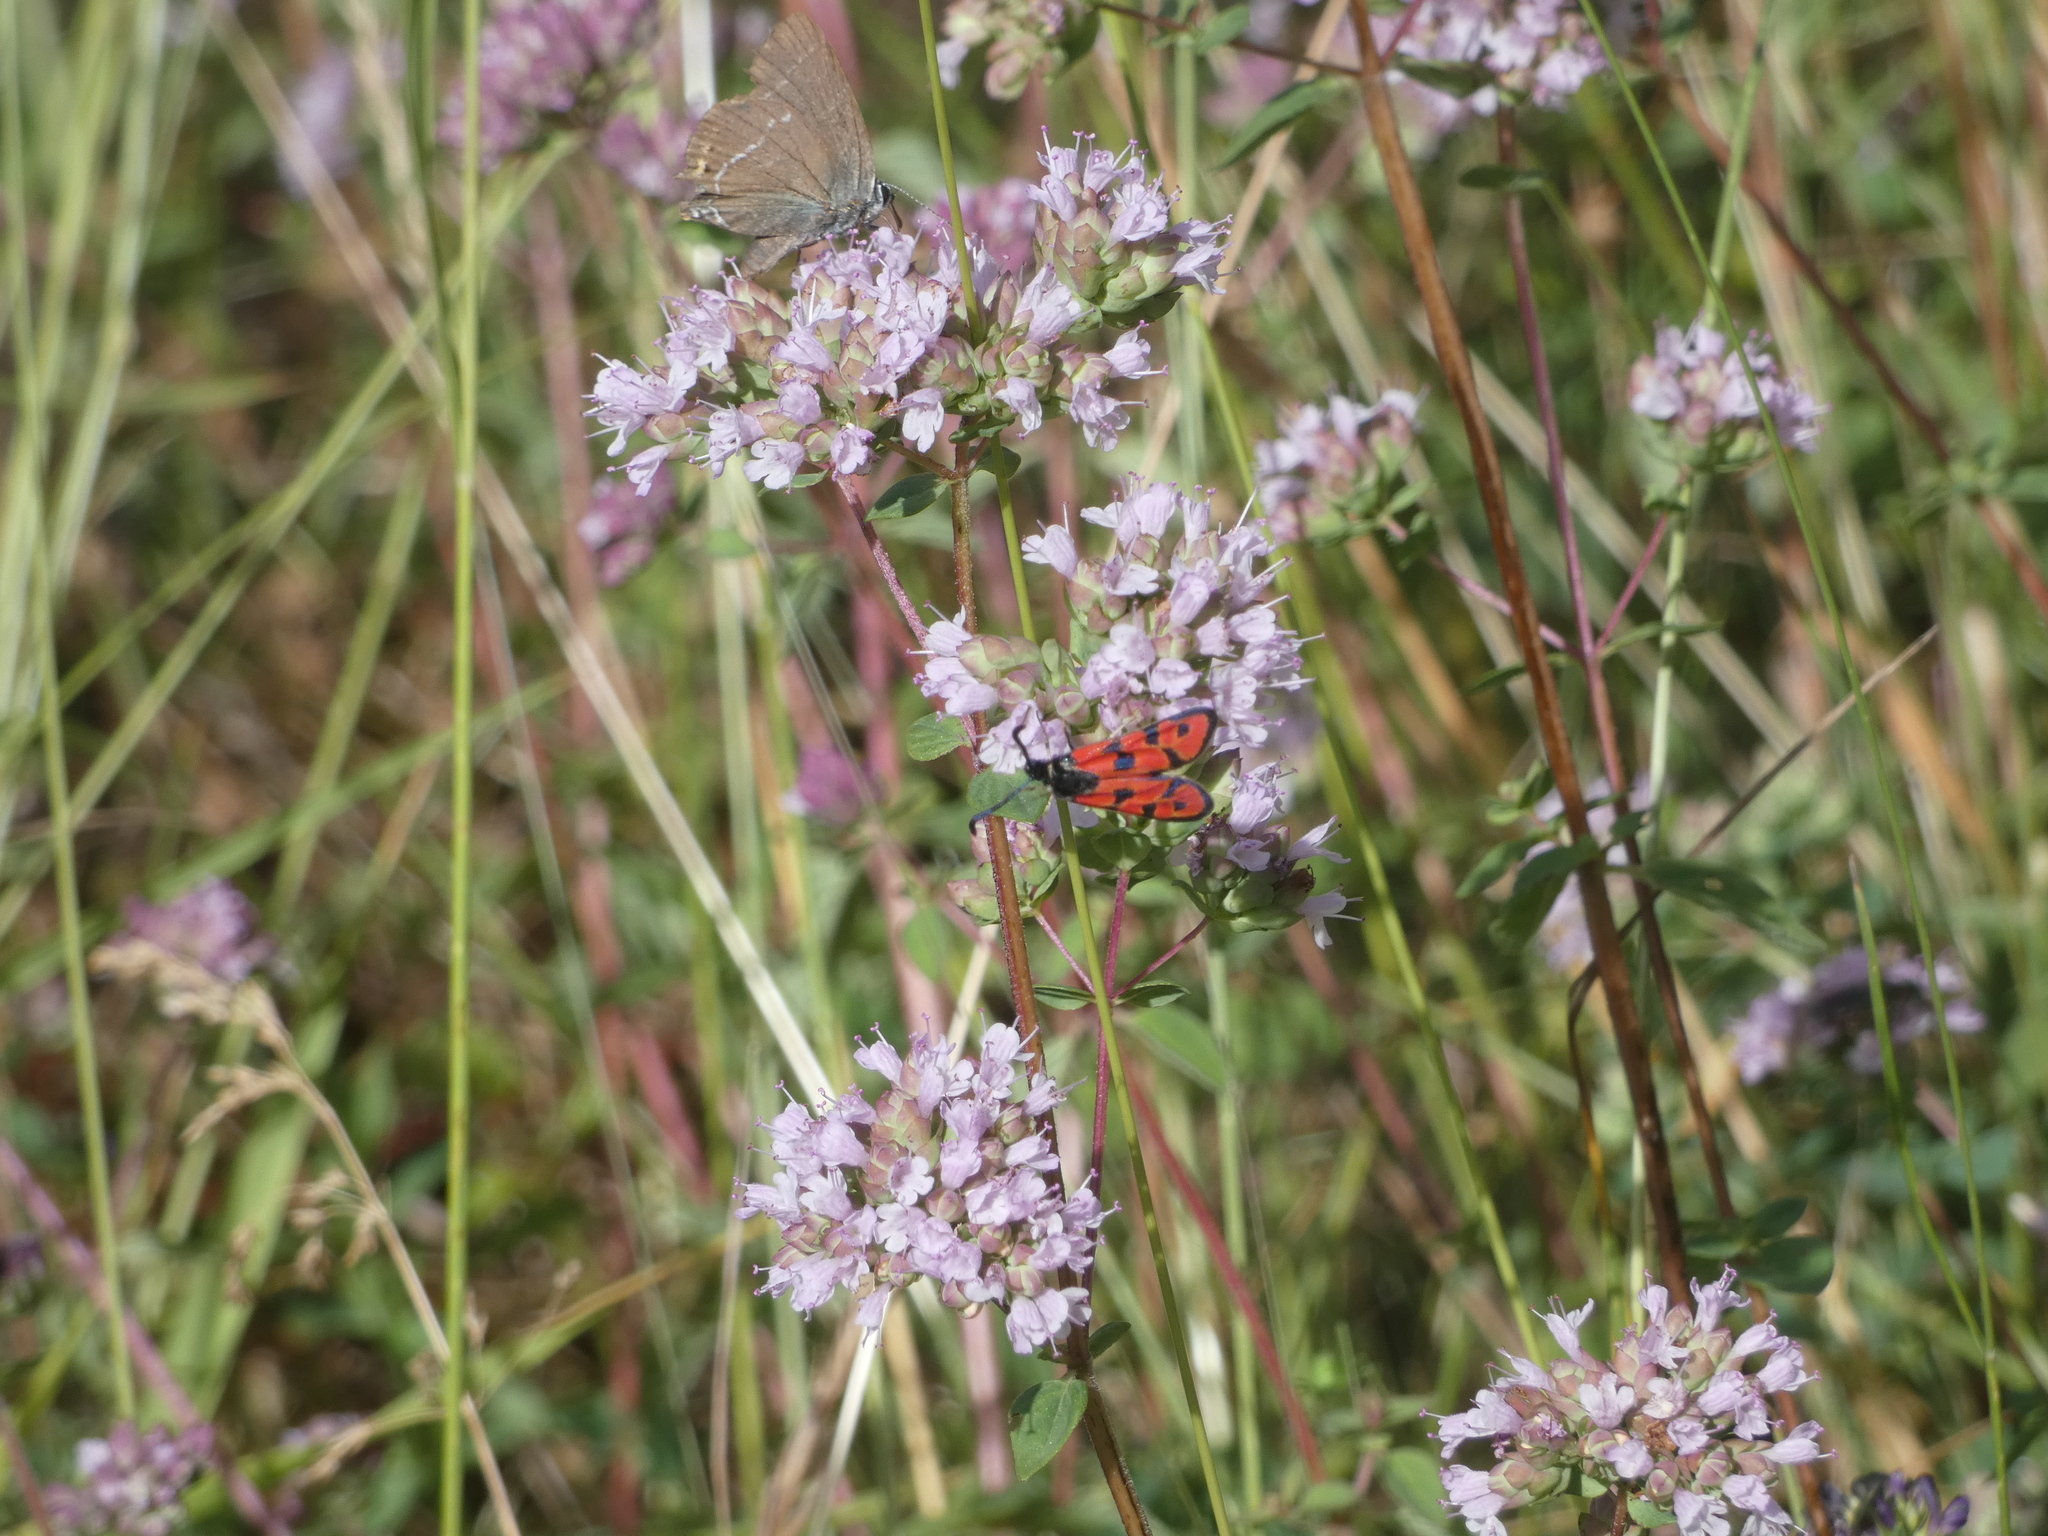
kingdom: Animalia
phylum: Arthropoda
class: Insecta
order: Lepidoptera
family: Zygaenidae
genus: Zygaena
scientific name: Zygaena hilaris
